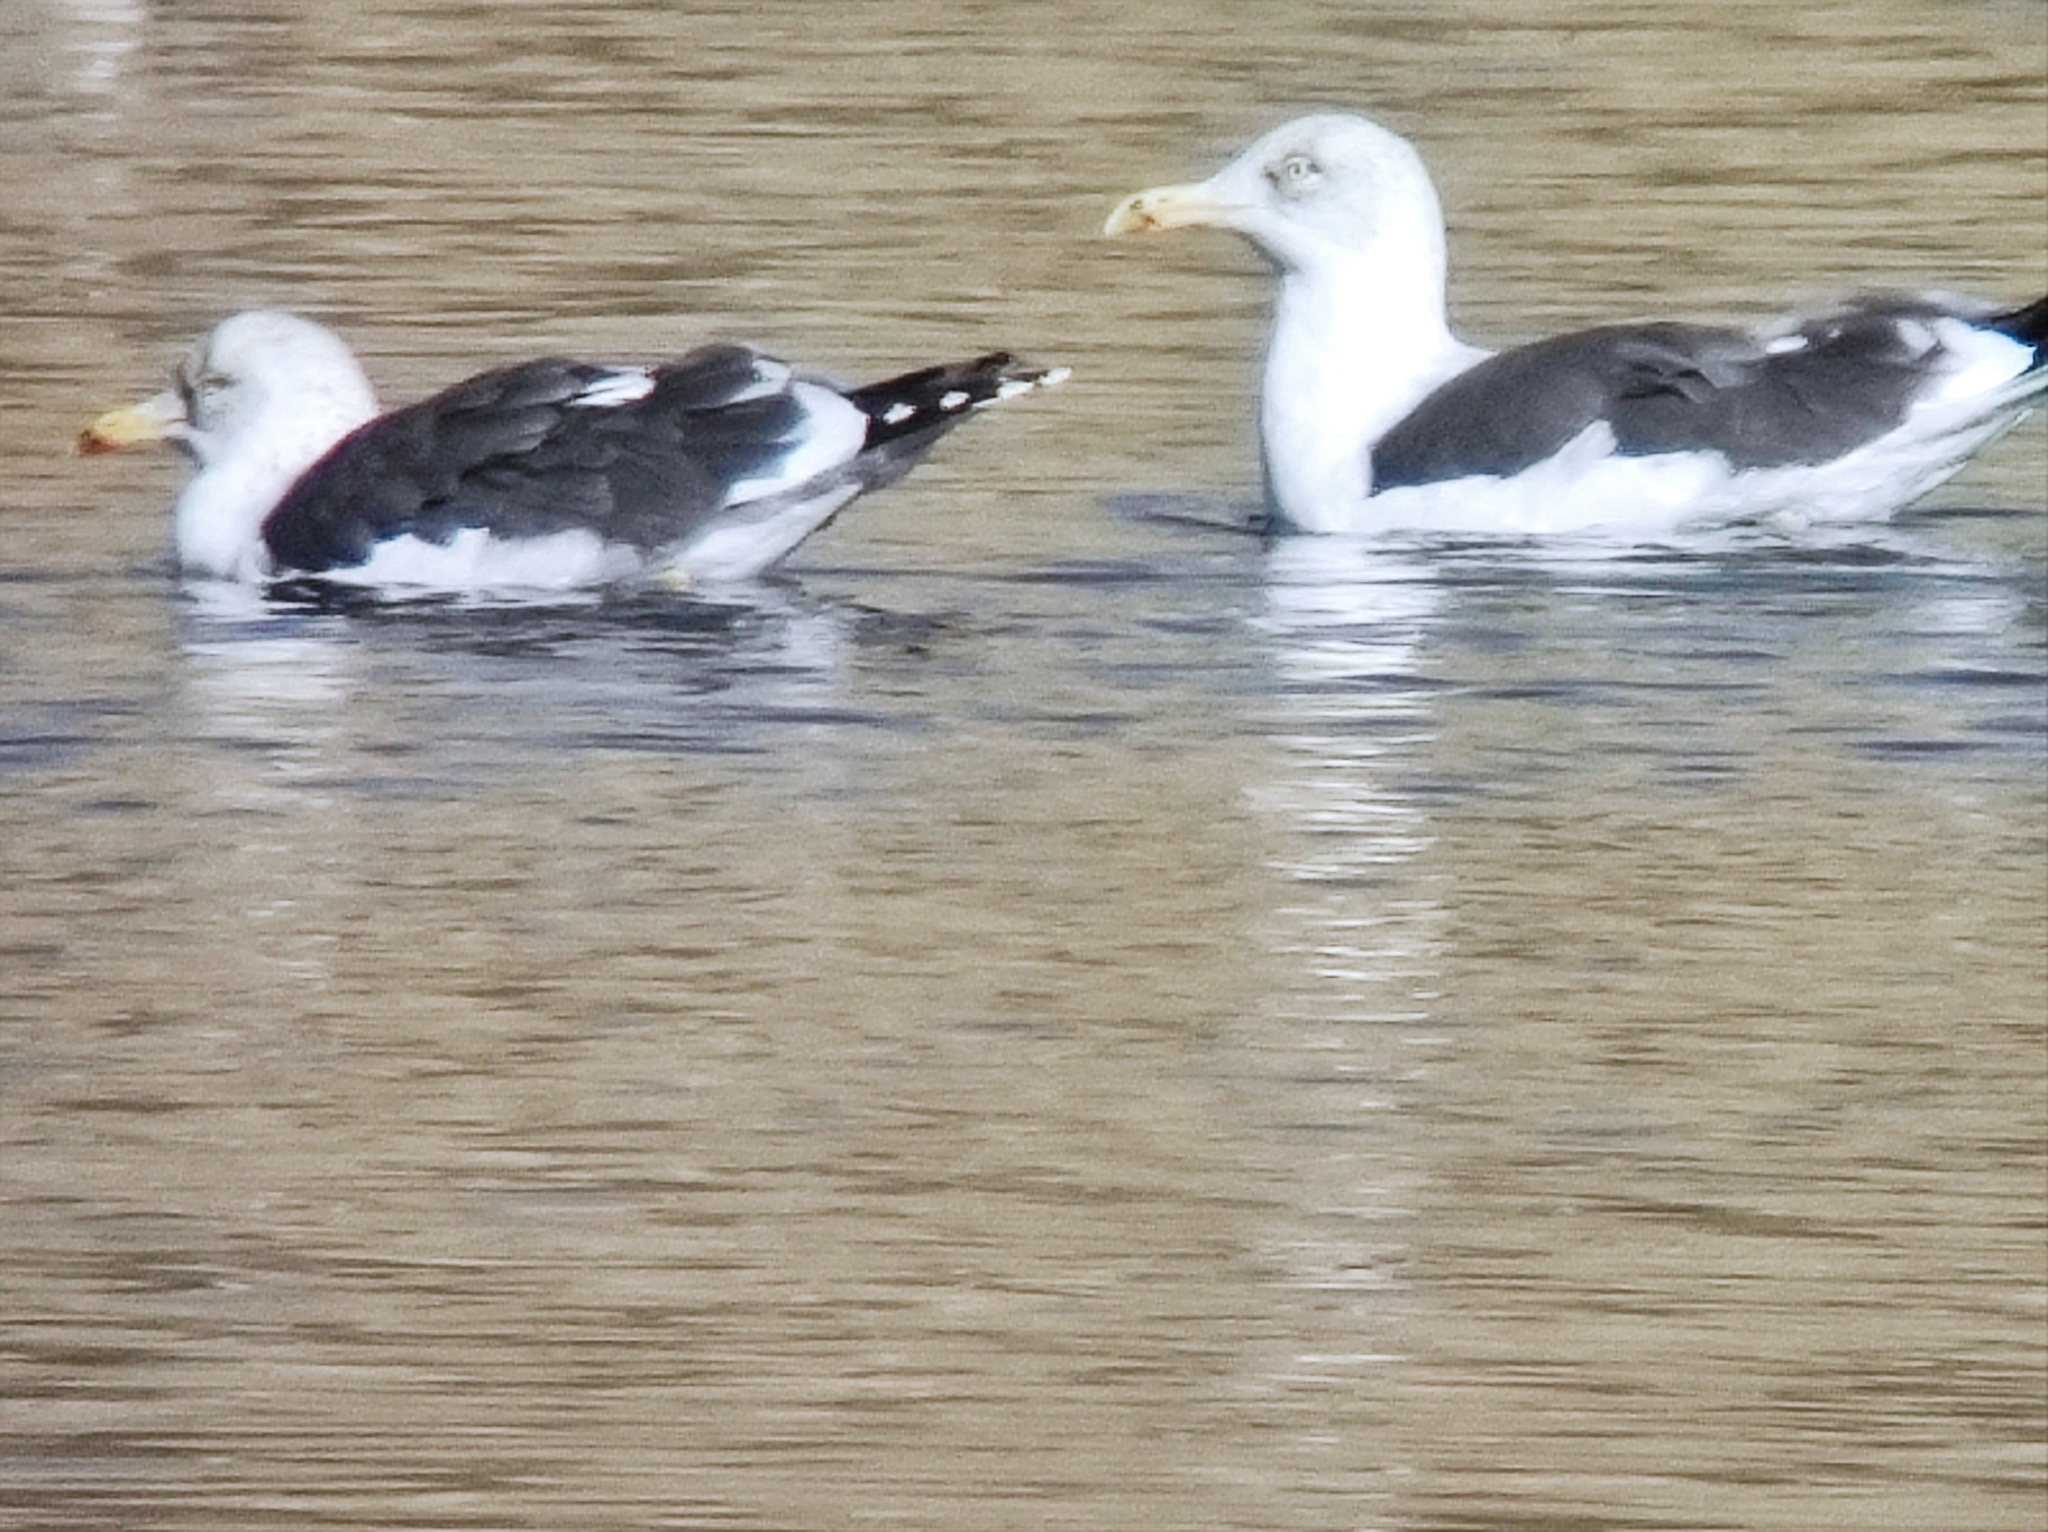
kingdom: Animalia
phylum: Chordata
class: Aves
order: Charadriiformes
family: Laridae
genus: Larus
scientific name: Larus fuscus
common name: Lesser black-backed gull
